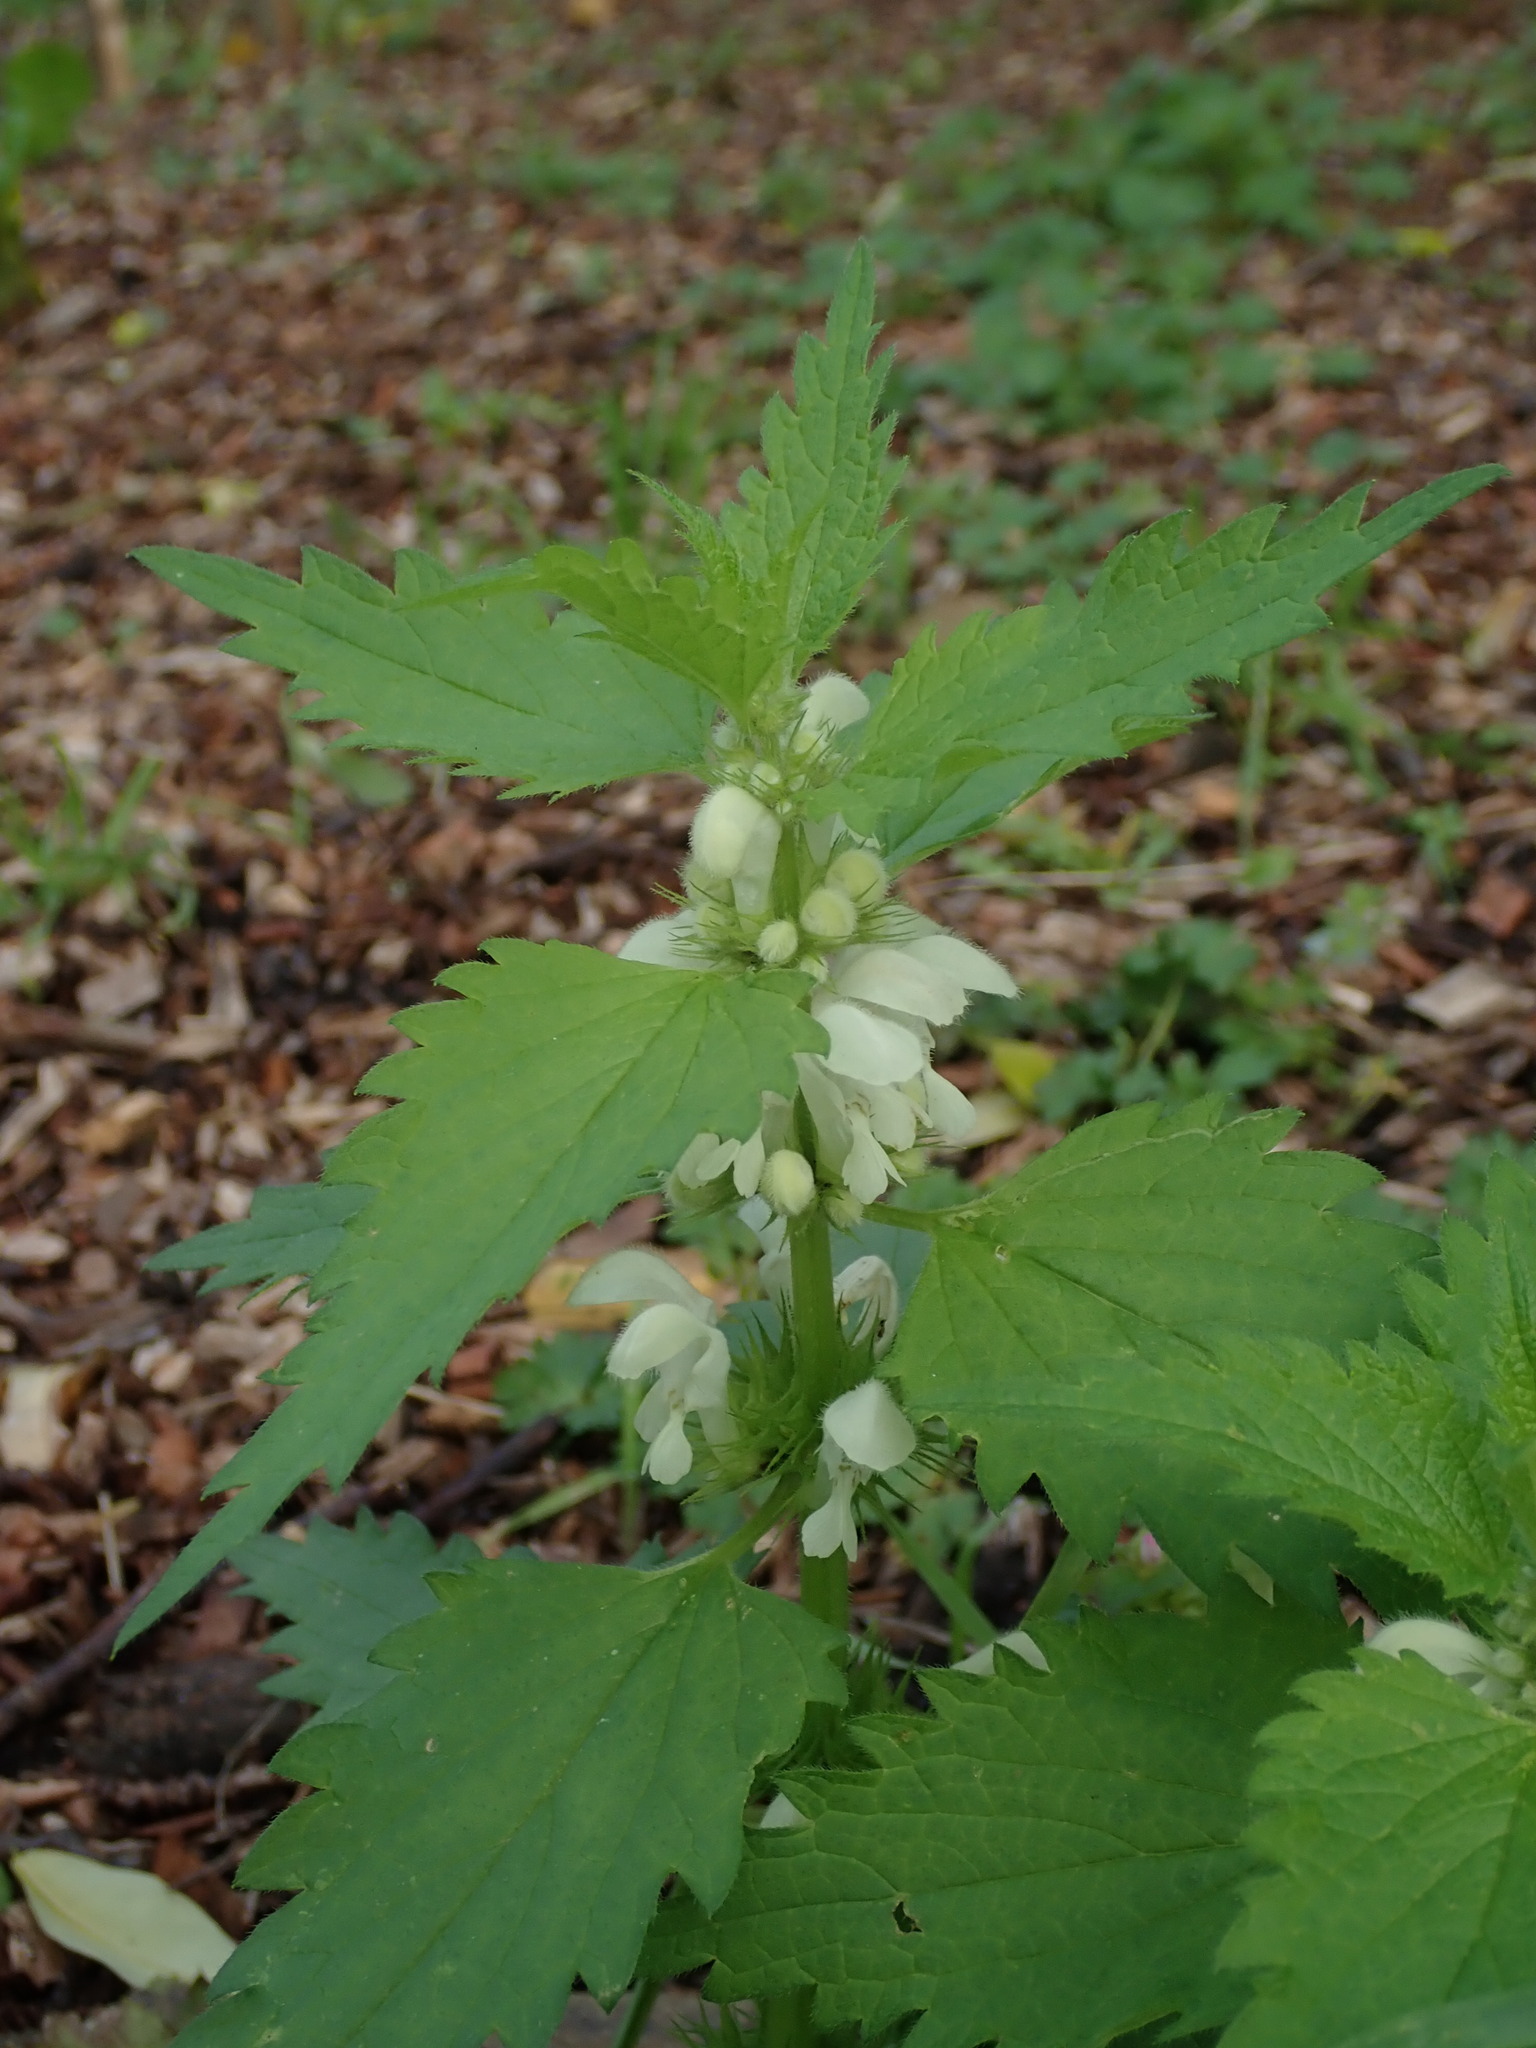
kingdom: Plantae
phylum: Tracheophyta
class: Magnoliopsida
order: Lamiales
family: Lamiaceae
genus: Lamium
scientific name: Lamium album
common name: White dead-nettle
